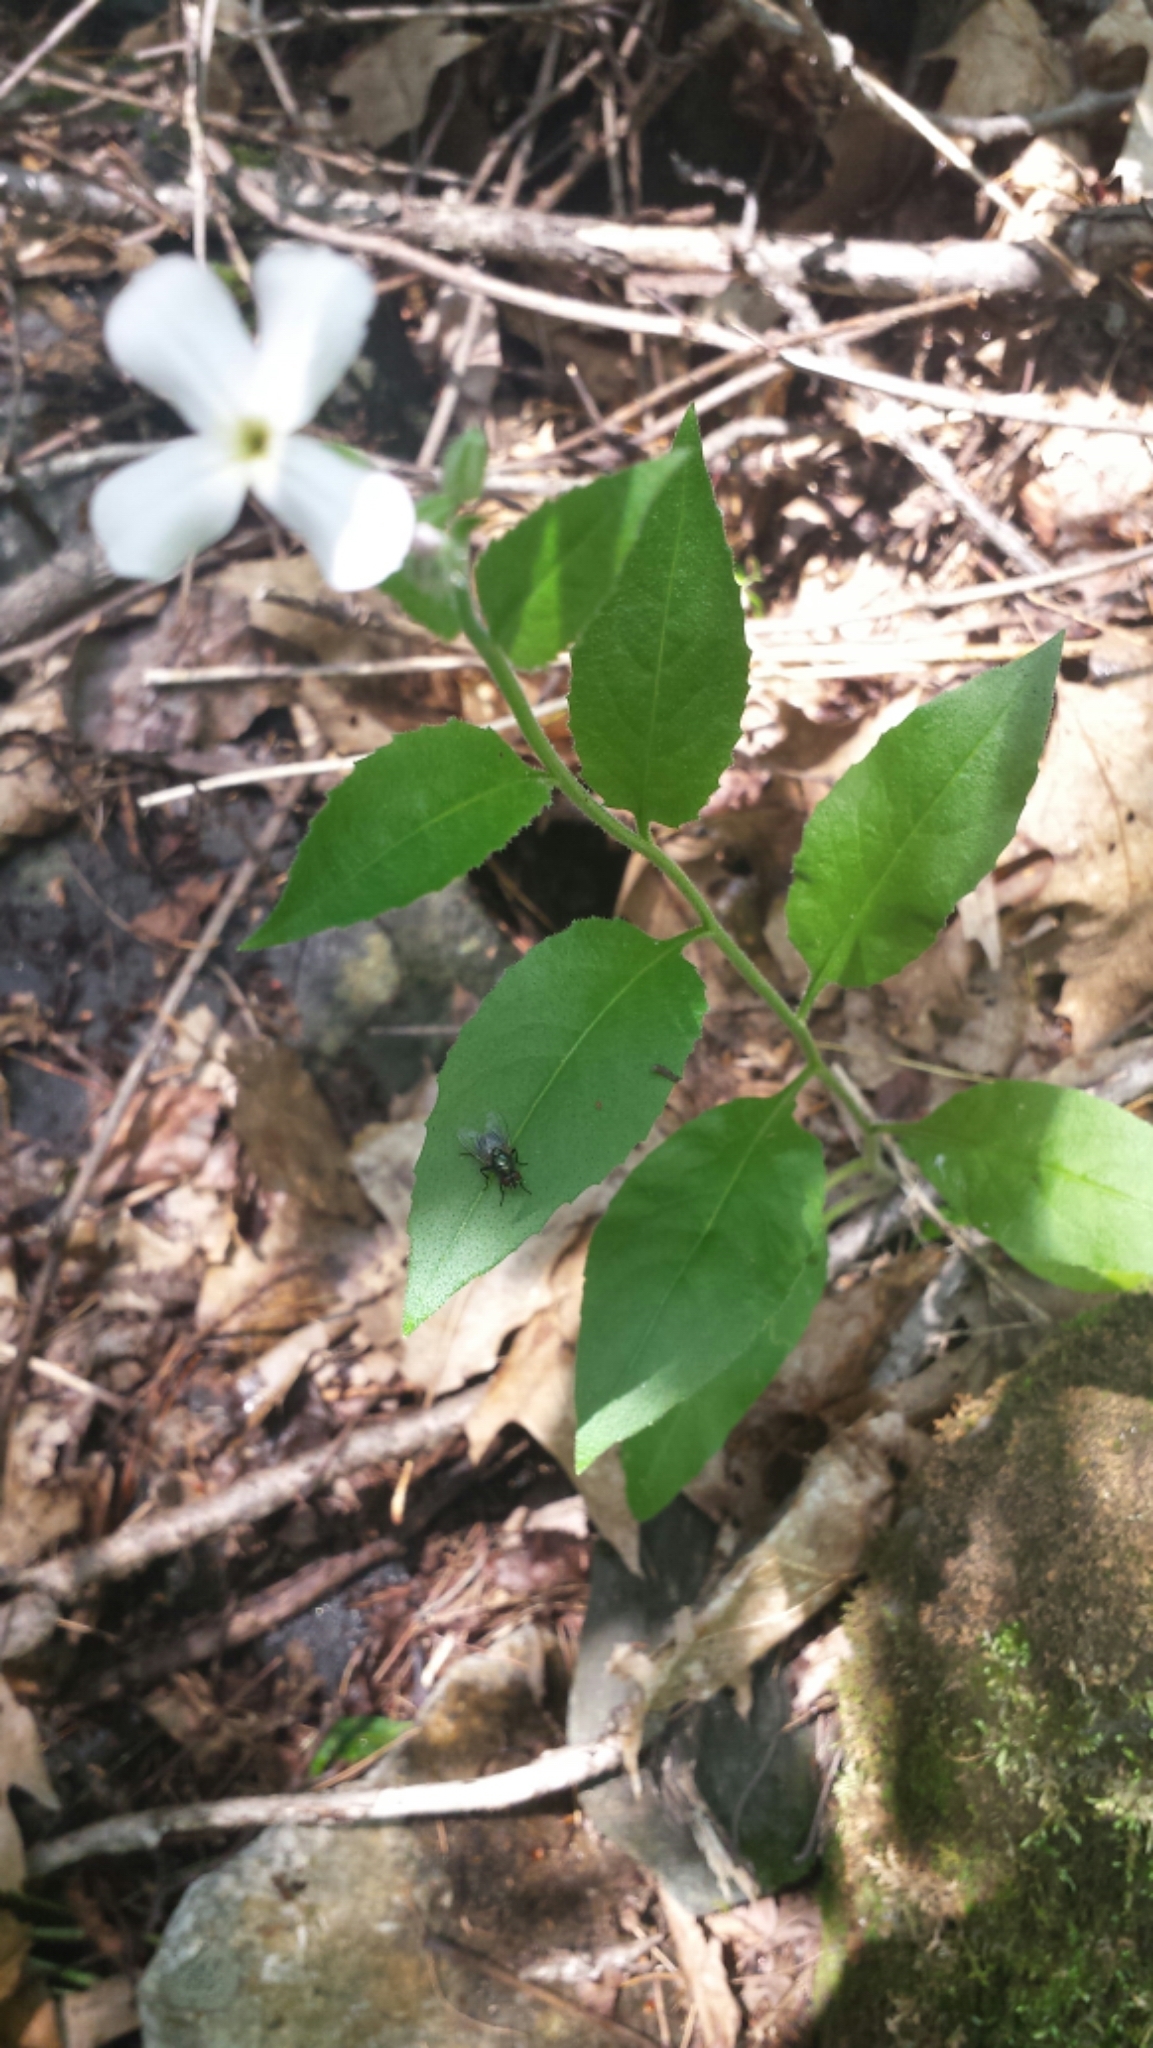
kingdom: Plantae
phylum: Tracheophyta
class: Magnoliopsida
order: Brassicales
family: Brassicaceae
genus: Hesperis
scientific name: Hesperis matronalis
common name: Dame's-violet
